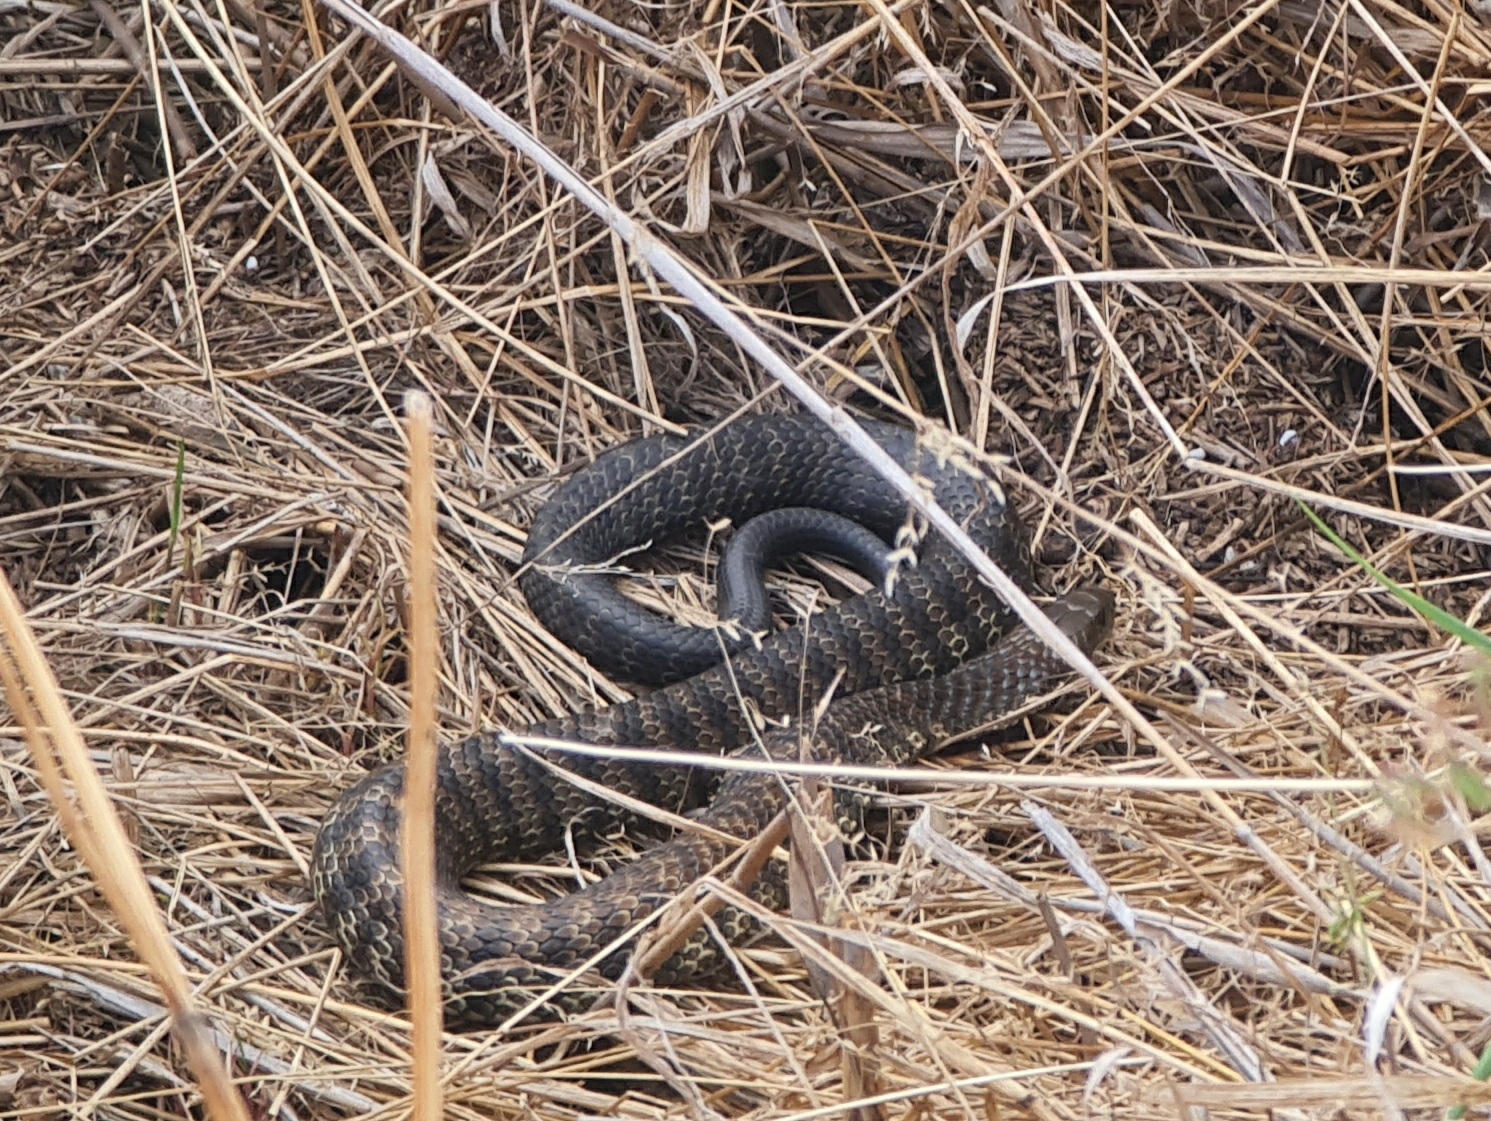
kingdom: Animalia
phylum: Chordata
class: Squamata
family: Elapidae
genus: Notechis
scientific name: Notechis scutatus
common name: Mainland tiger snake
